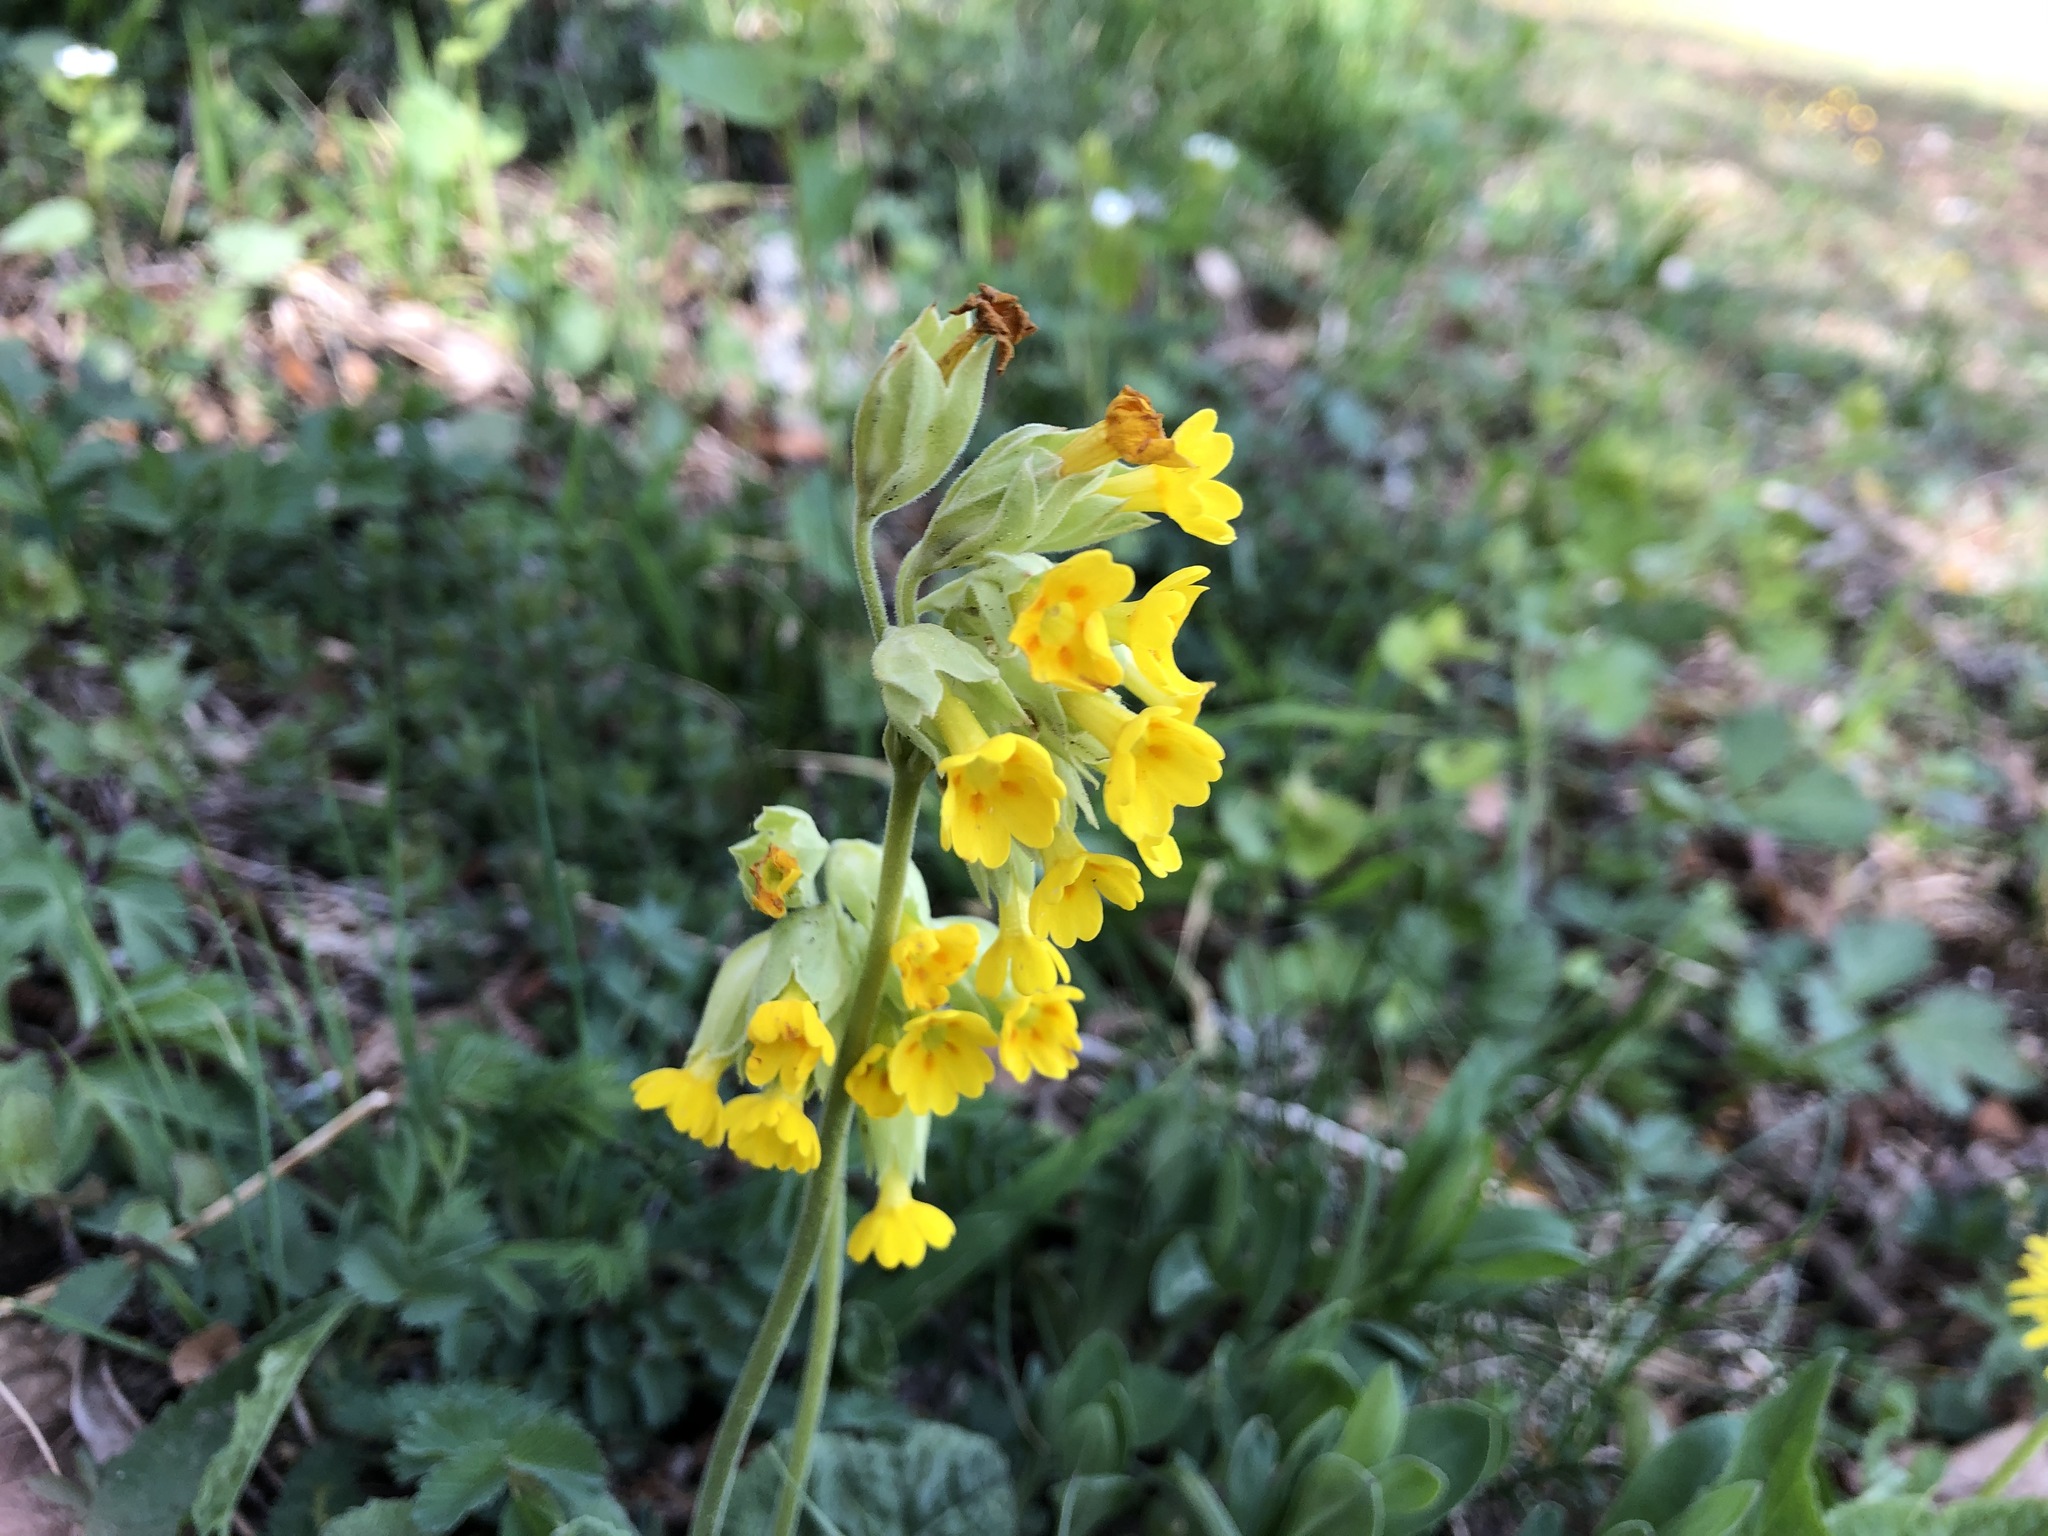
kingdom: Plantae
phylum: Tracheophyta
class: Magnoliopsida
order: Ericales
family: Primulaceae
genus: Primula
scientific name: Primula veris
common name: Cowslip
